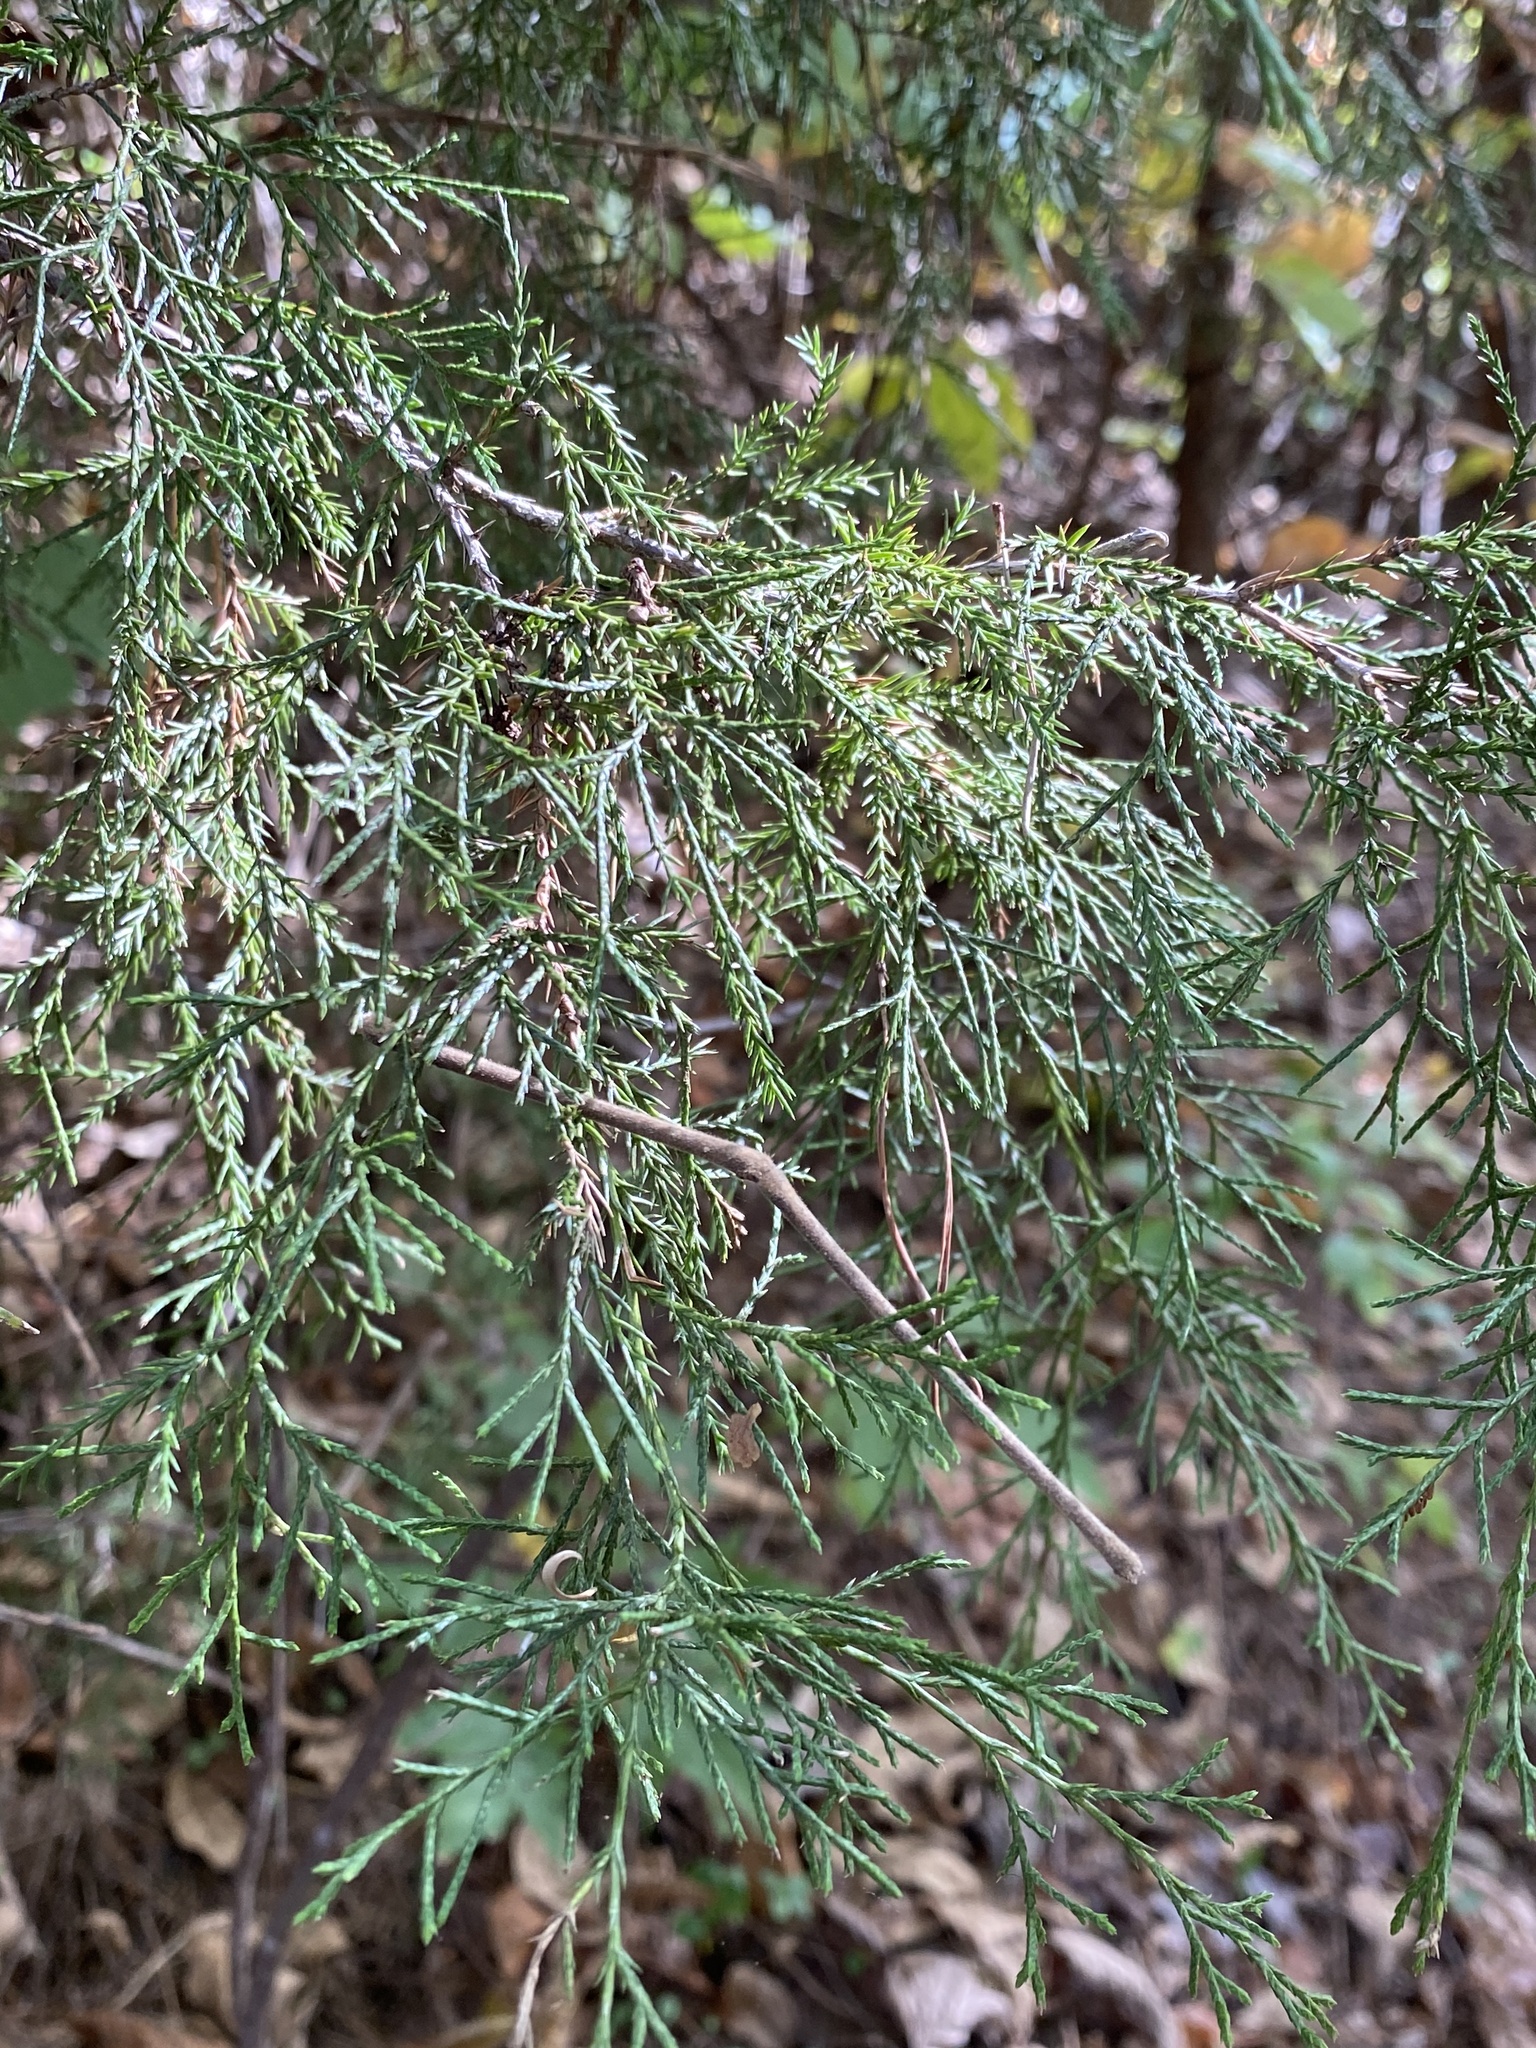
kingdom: Plantae
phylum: Tracheophyta
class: Pinopsida
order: Pinales
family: Cupressaceae
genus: Juniperus
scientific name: Juniperus virginiana
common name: Red juniper
